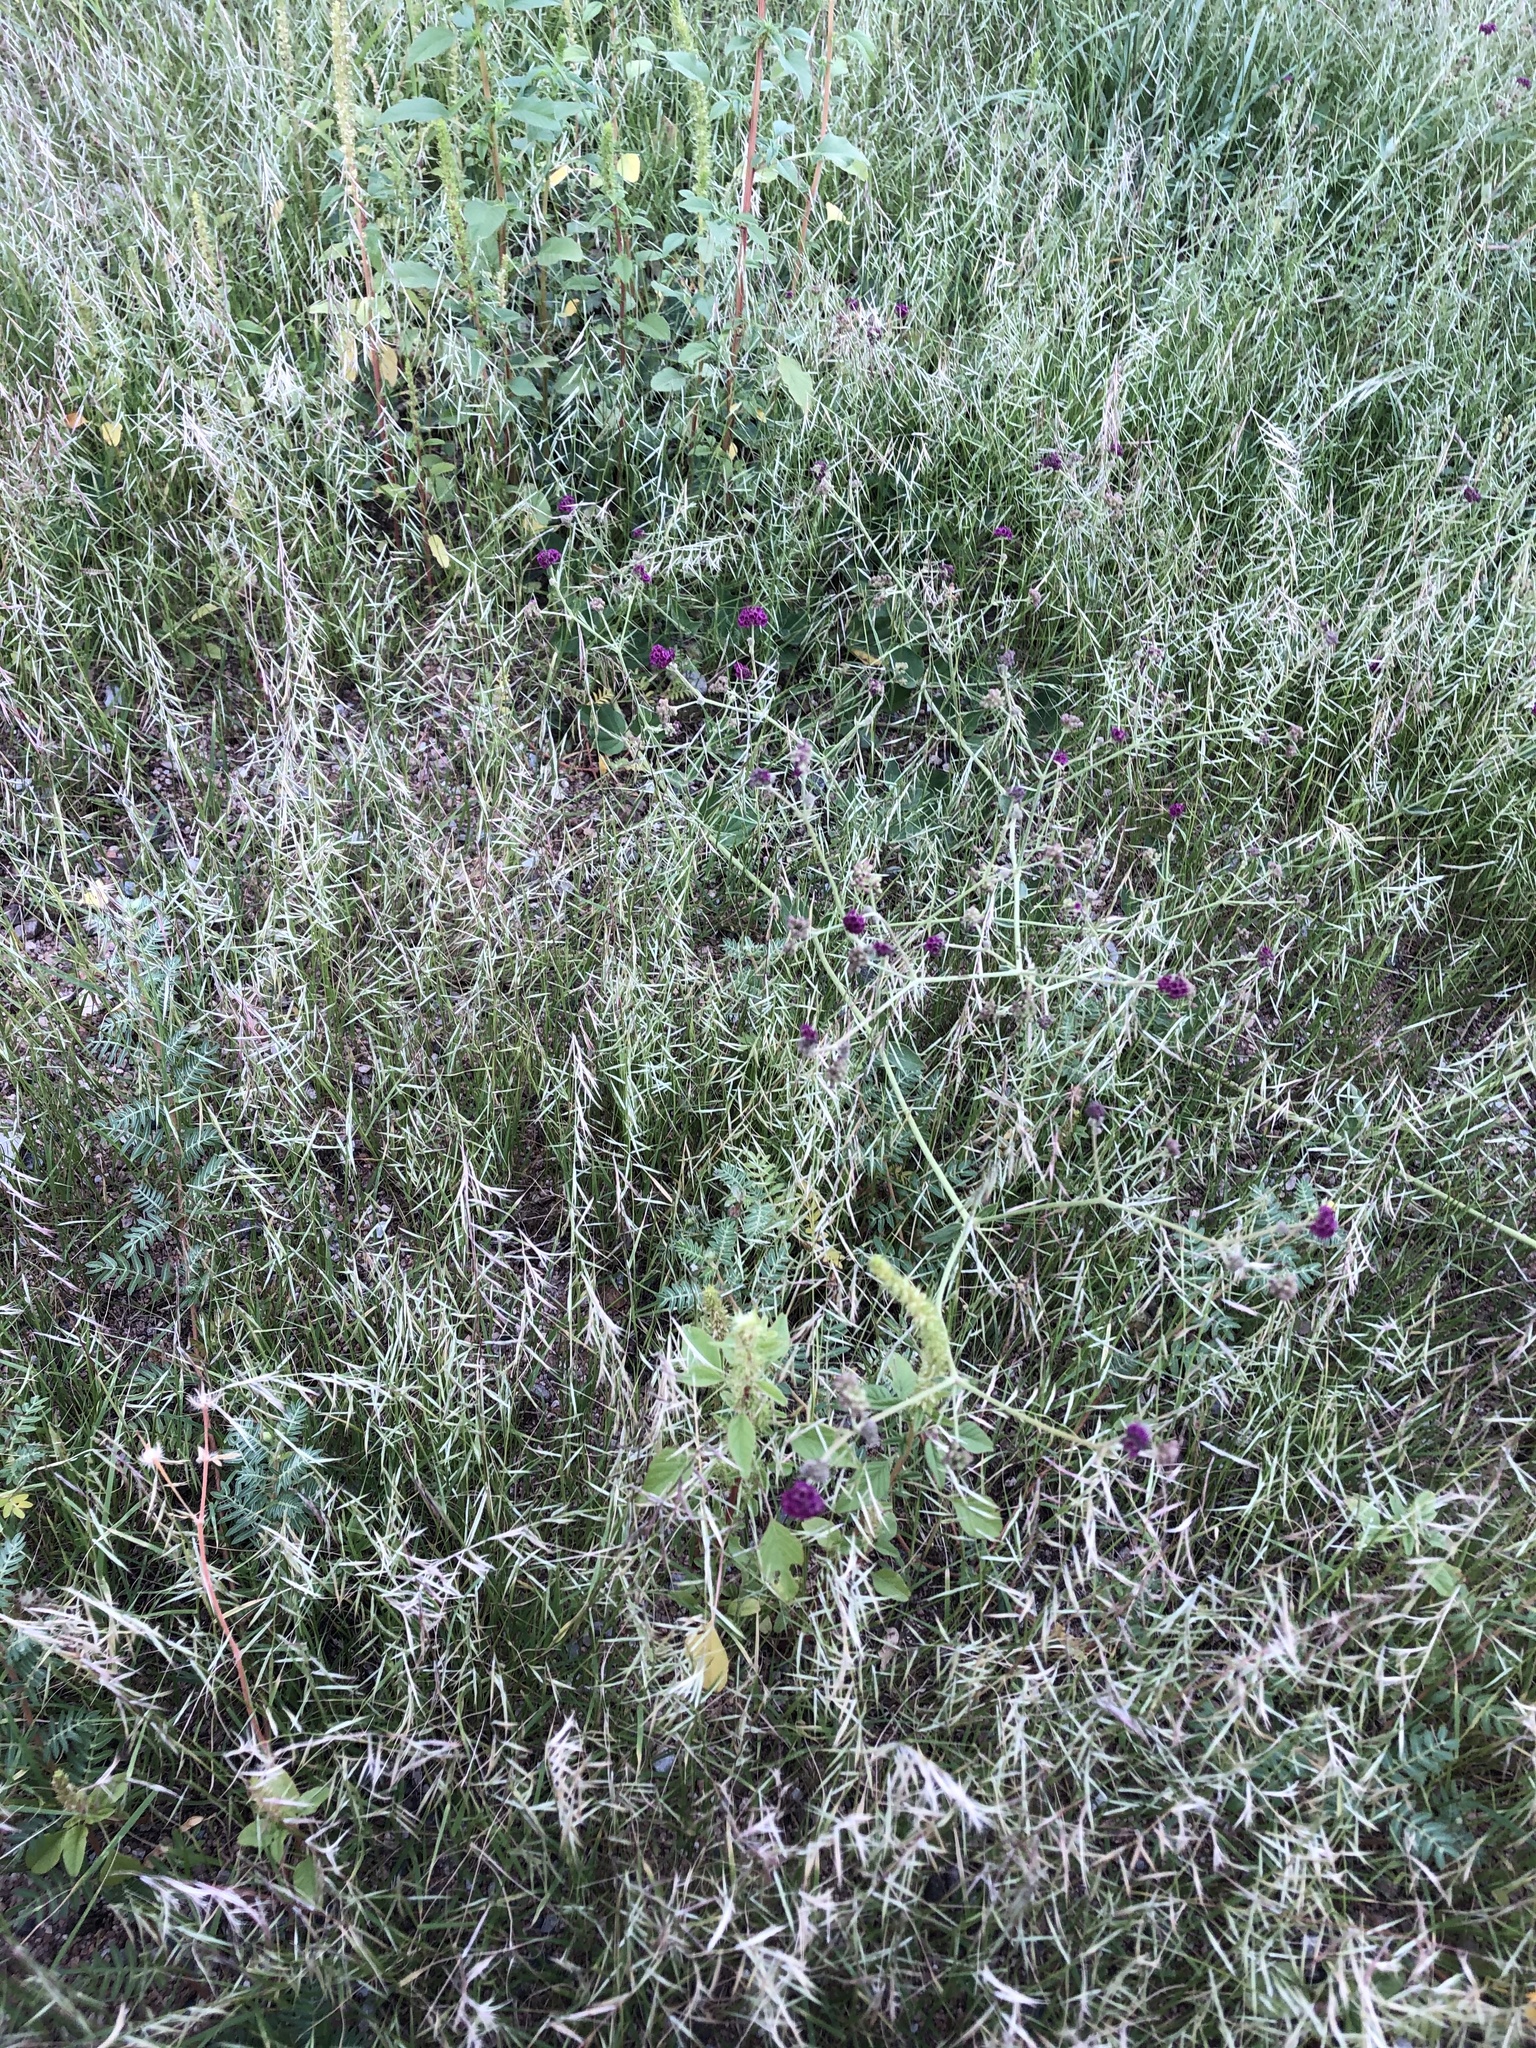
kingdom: Plantae
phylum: Tracheophyta
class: Magnoliopsida
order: Caryophyllales
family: Nyctaginaceae
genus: Boerhavia
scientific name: Boerhavia coccinea
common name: Scarlet spiderling
